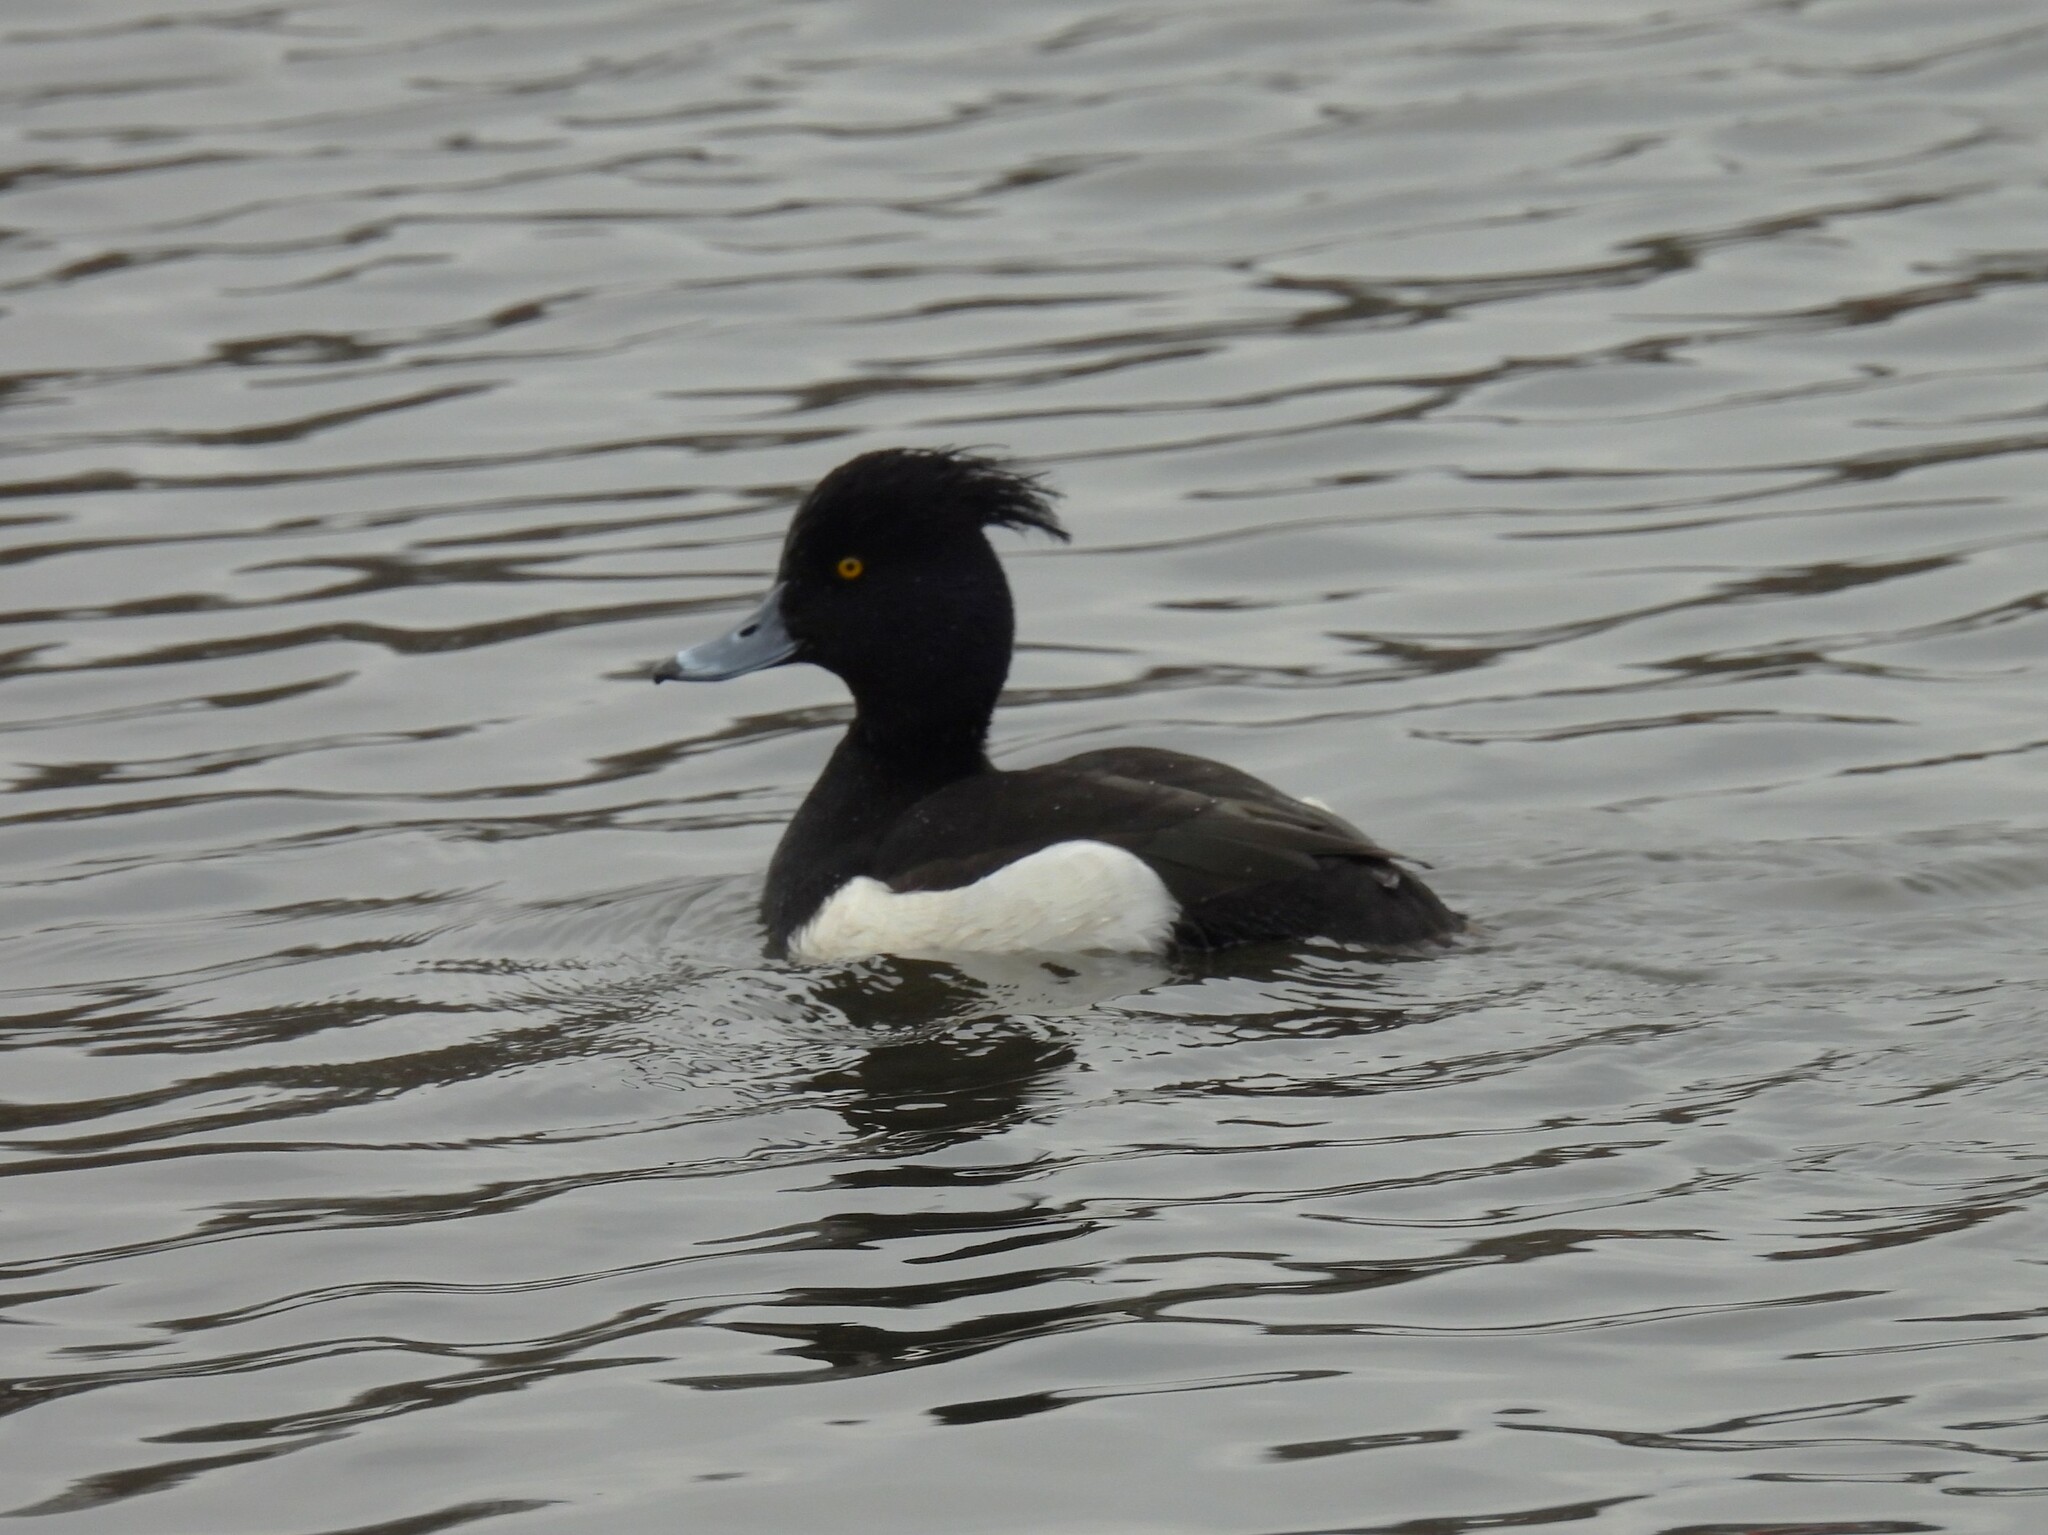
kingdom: Animalia
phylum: Chordata
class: Aves
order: Anseriformes
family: Anatidae
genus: Aythya
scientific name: Aythya fuligula
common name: Tufted duck
